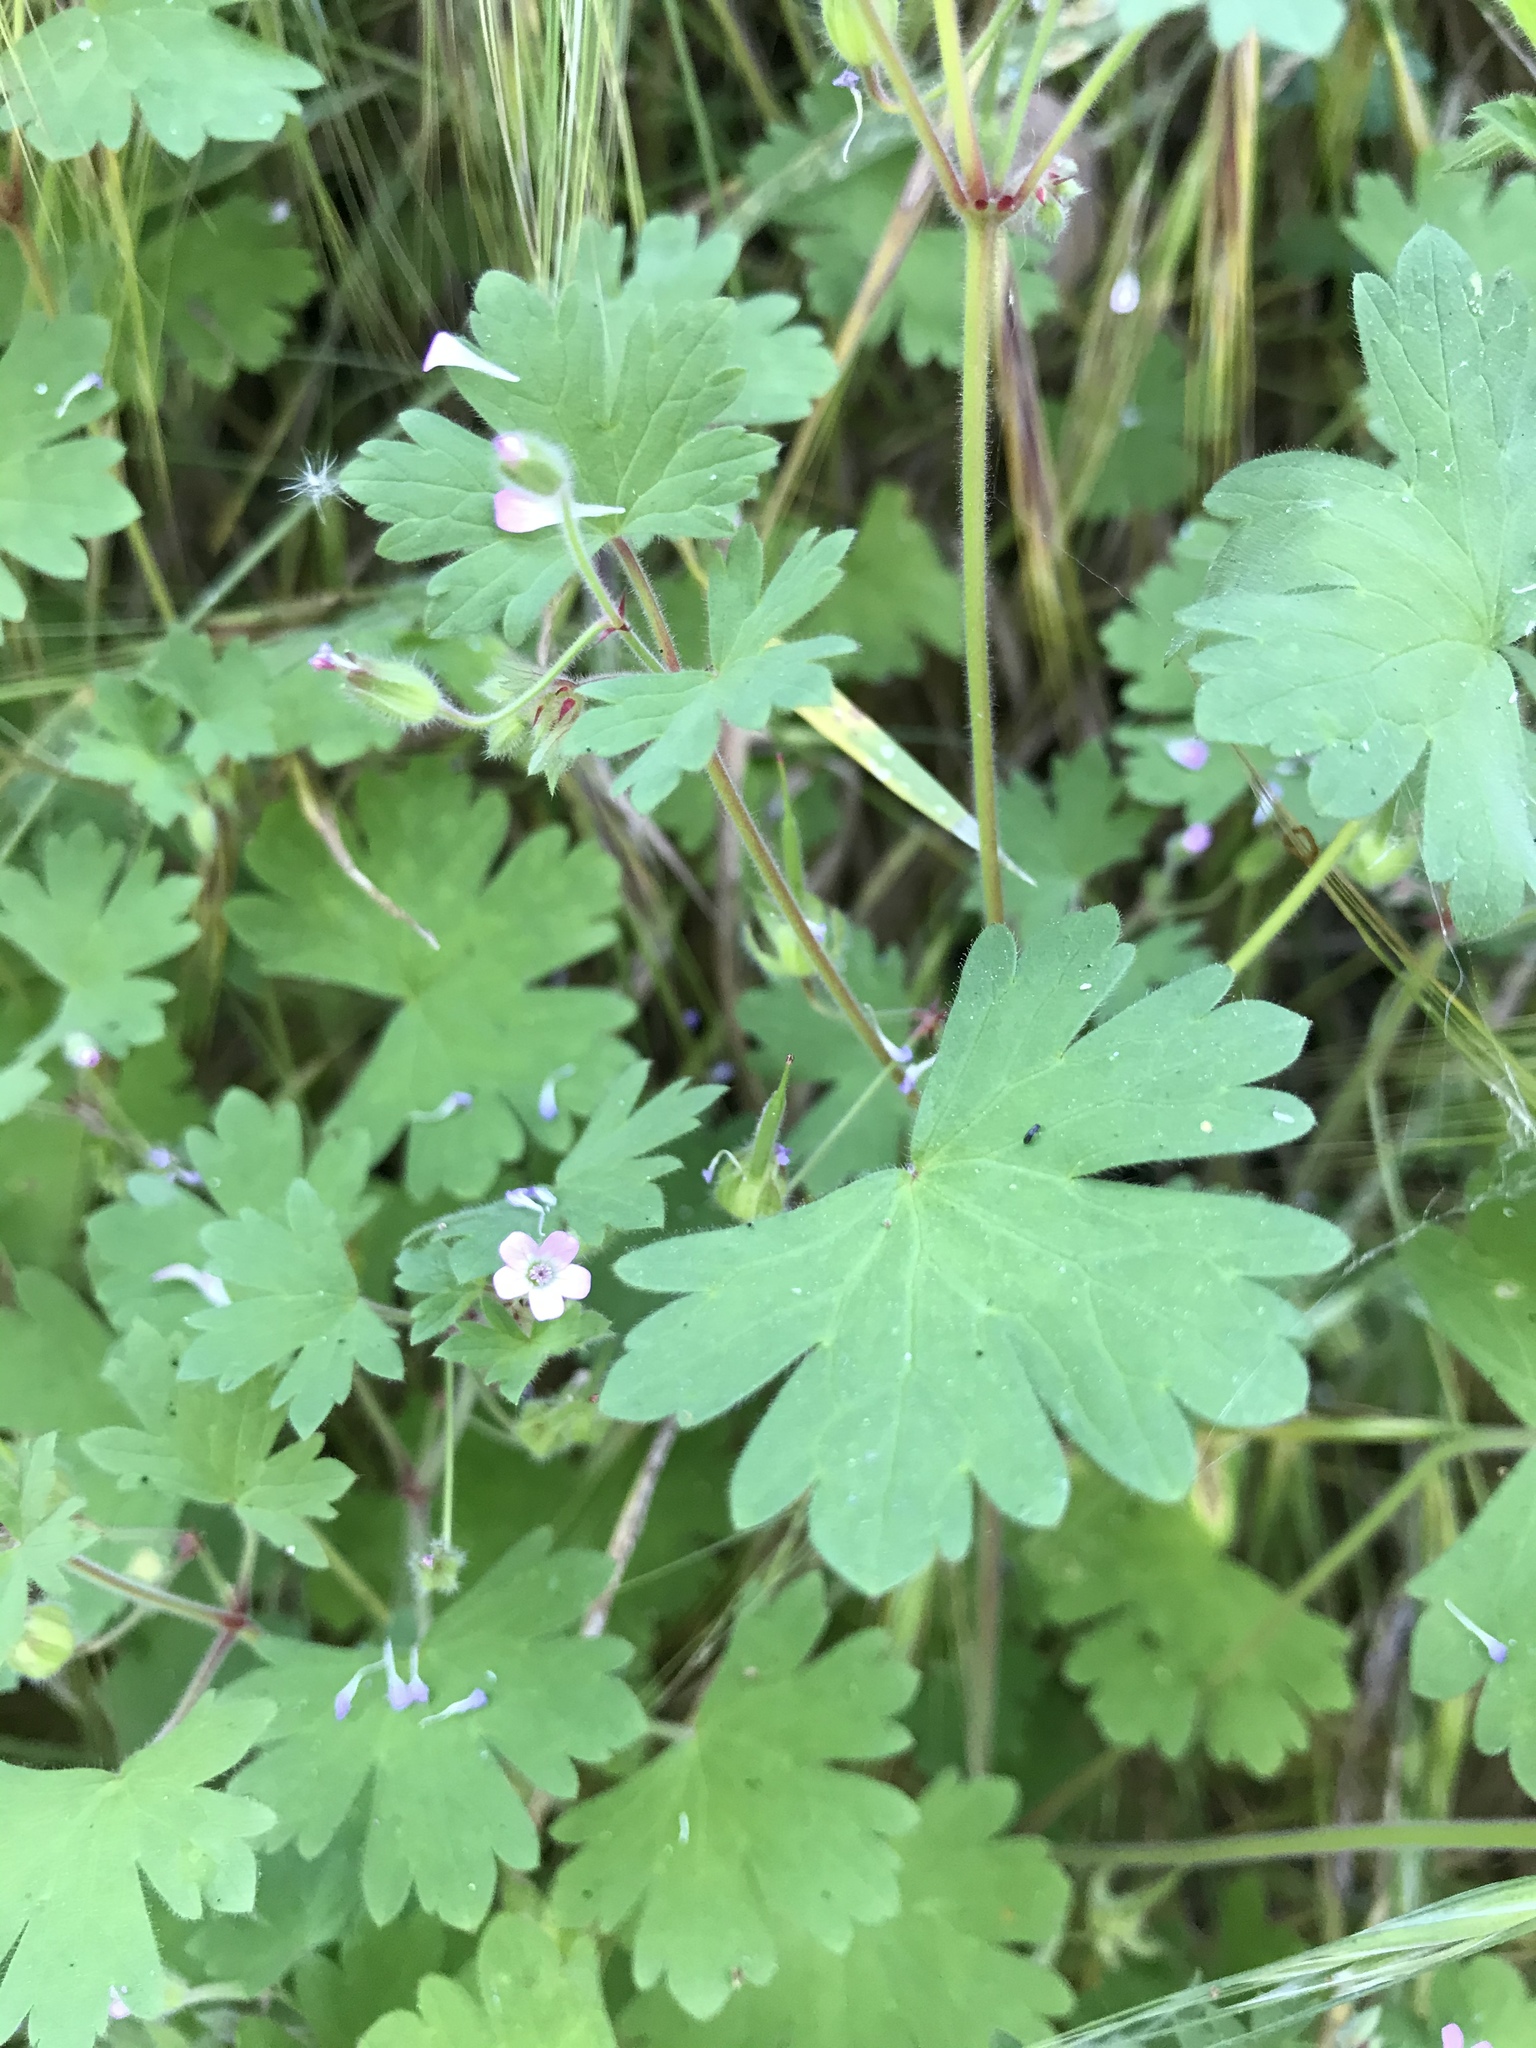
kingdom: Plantae
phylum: Tracheophyta
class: Magnoliopsida
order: Geraniales
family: Geraniaceae
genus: Geranium
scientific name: Geranium rotundifolium
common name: Round-leaved crane's-bill
